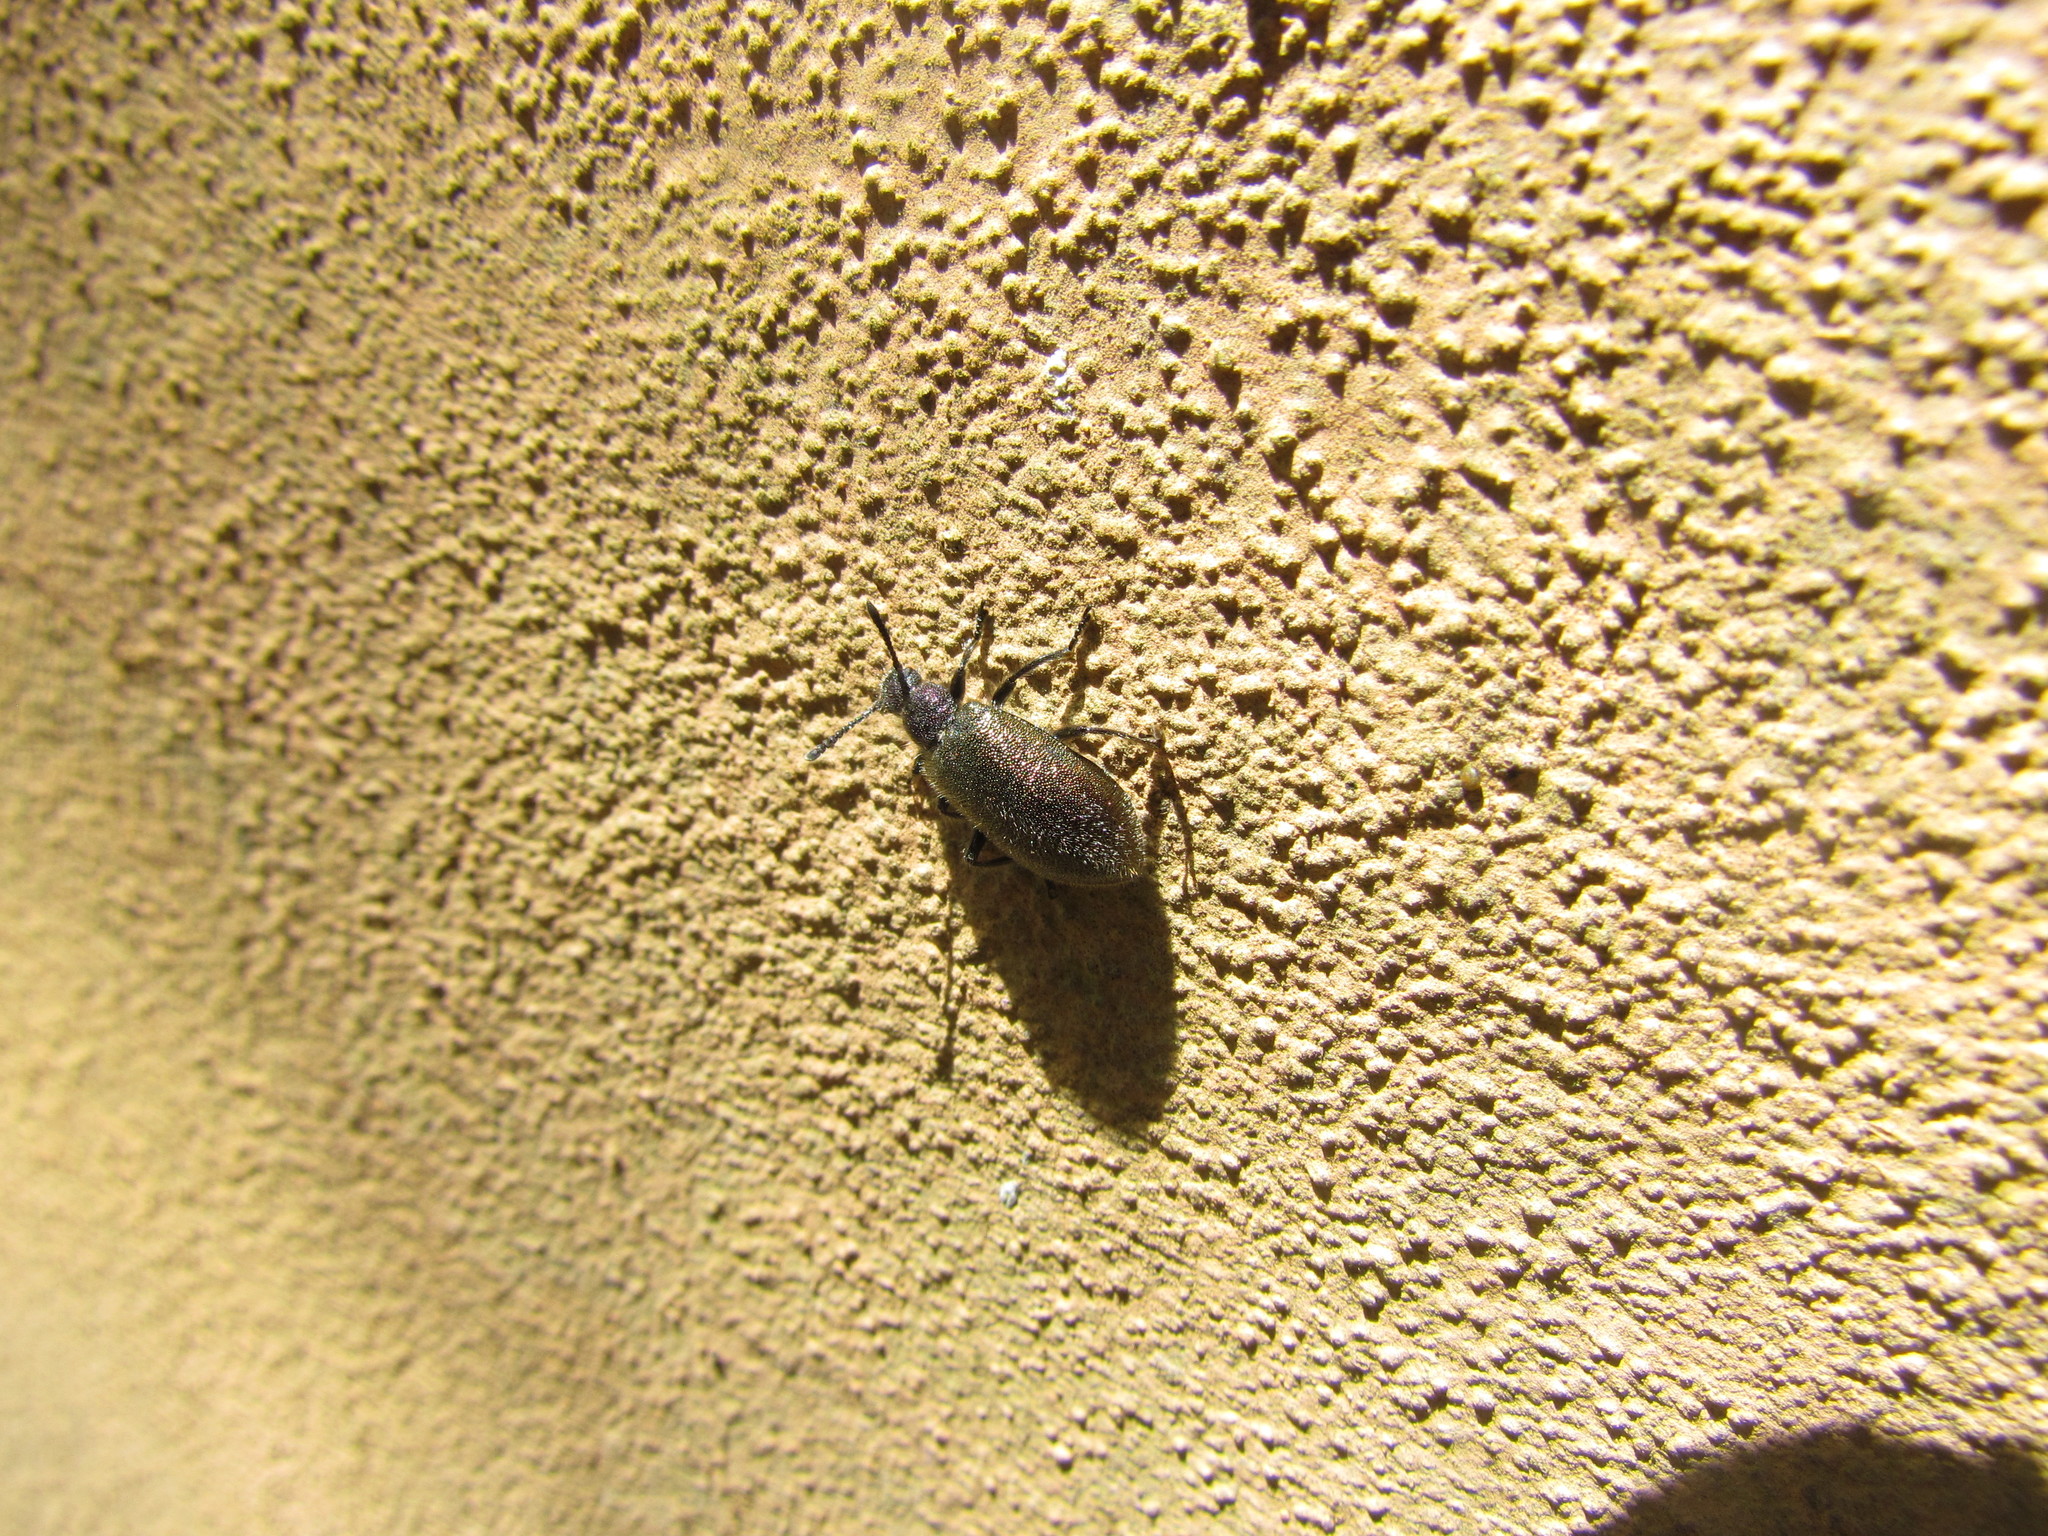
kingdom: Animalia
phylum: Arthropoda
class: Insecta
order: Coleoptera
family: Tenebrionidae
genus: Lagria
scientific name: Lagria villosa
